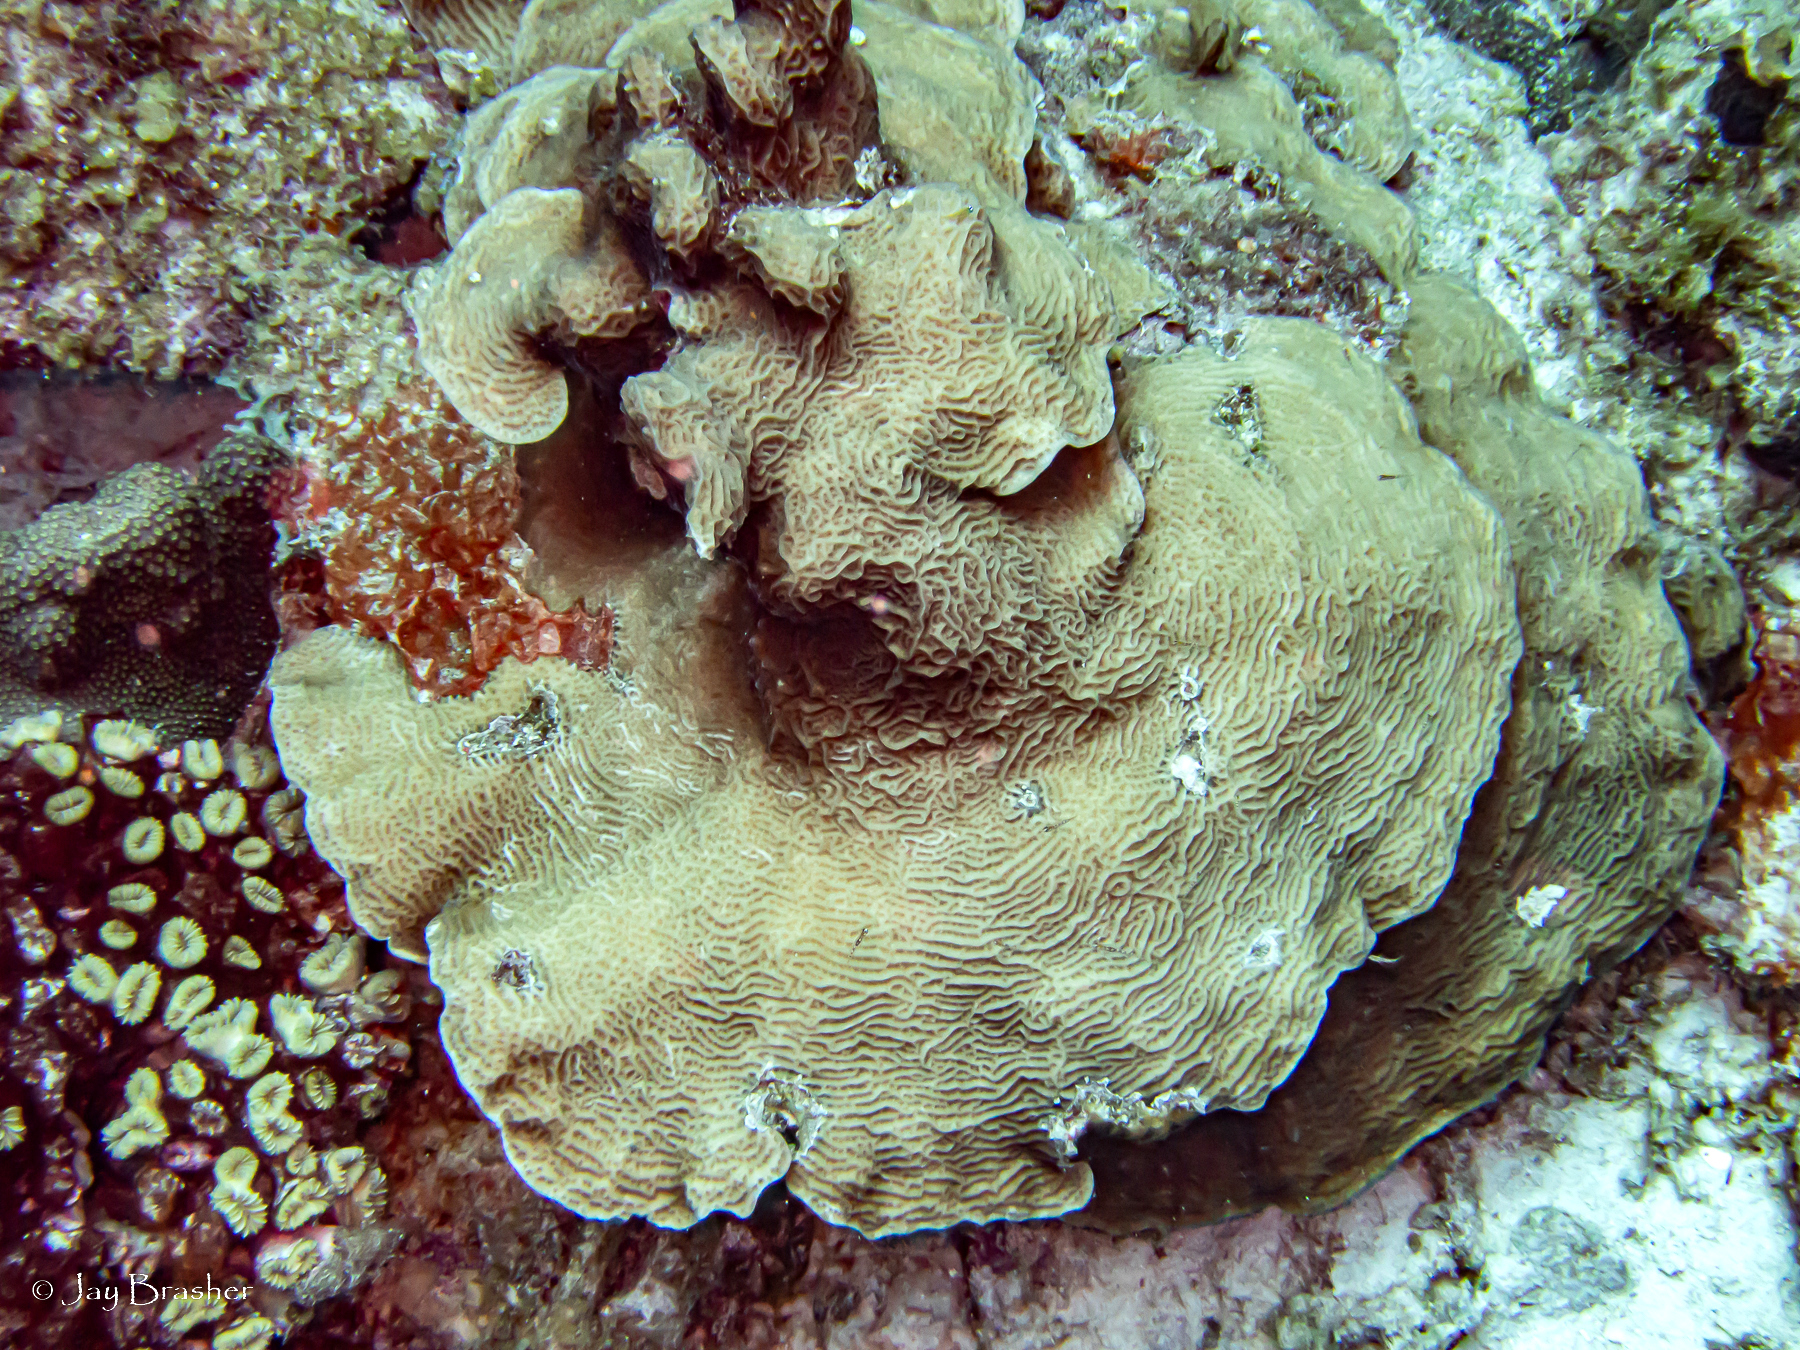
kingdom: Animalia
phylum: Cnidaria
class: Anthozoa
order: Scleractinia
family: Agariciidae
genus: Agaricia
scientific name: Agaricia agaricites
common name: Lettuce coral
